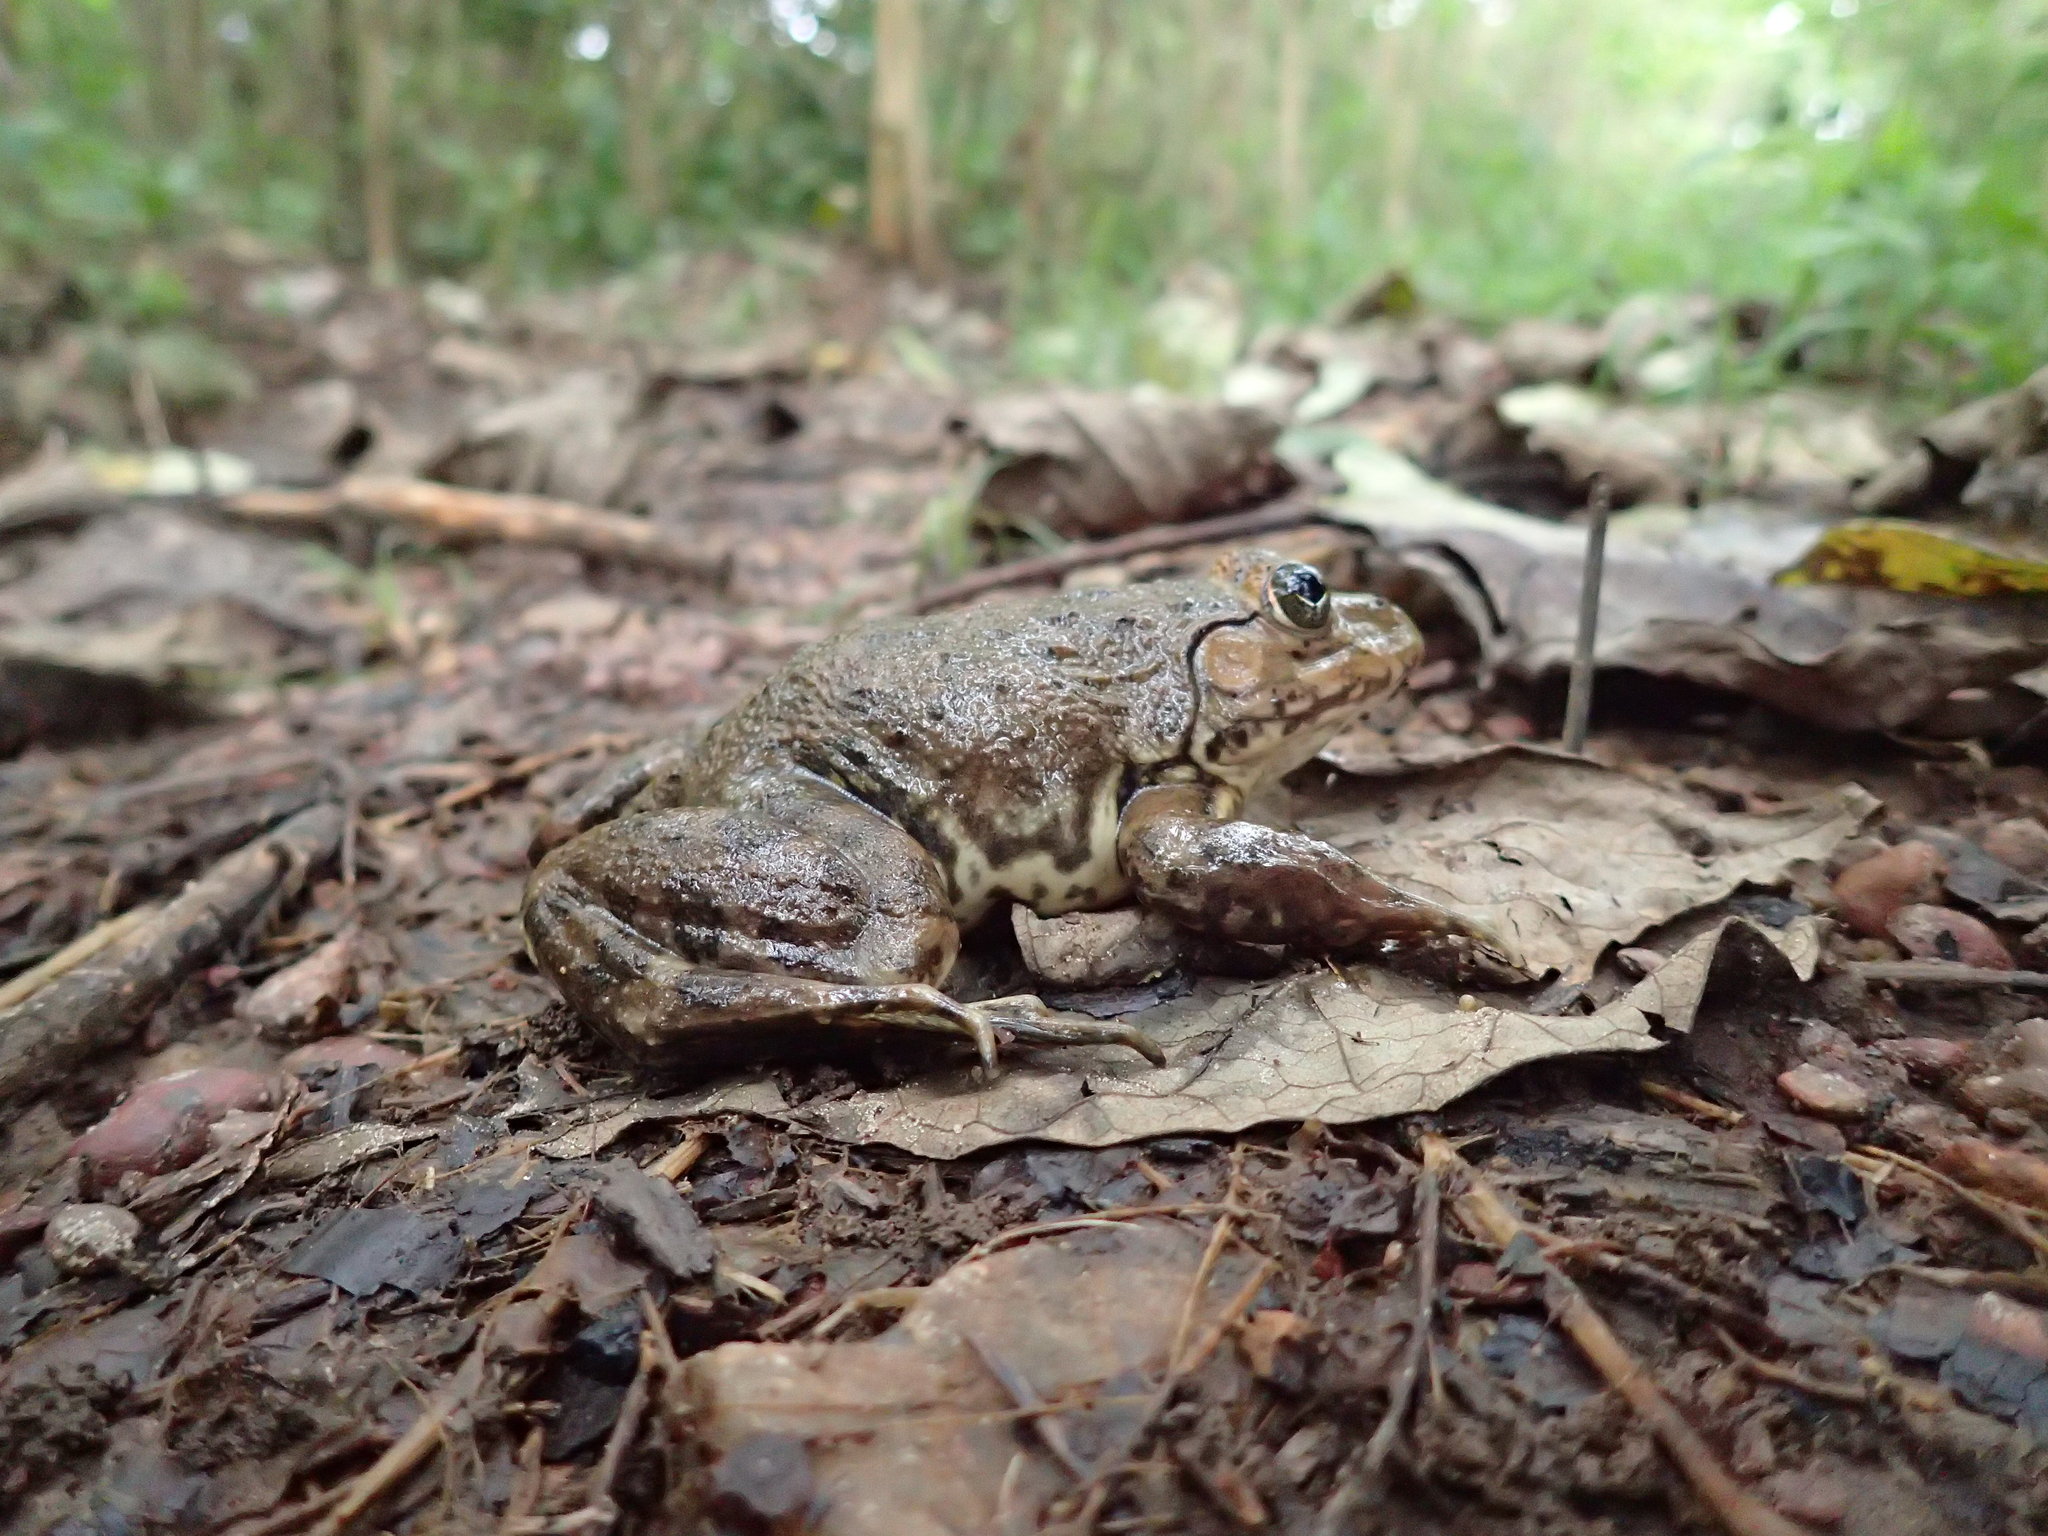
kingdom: Animalia
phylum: Chordata
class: Amphibia
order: Anura
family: Dicroglossidae
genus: Hoplobatrachus
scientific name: Hoplobatrachus occipitalis
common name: Eastern groove-crowned bullfrog
